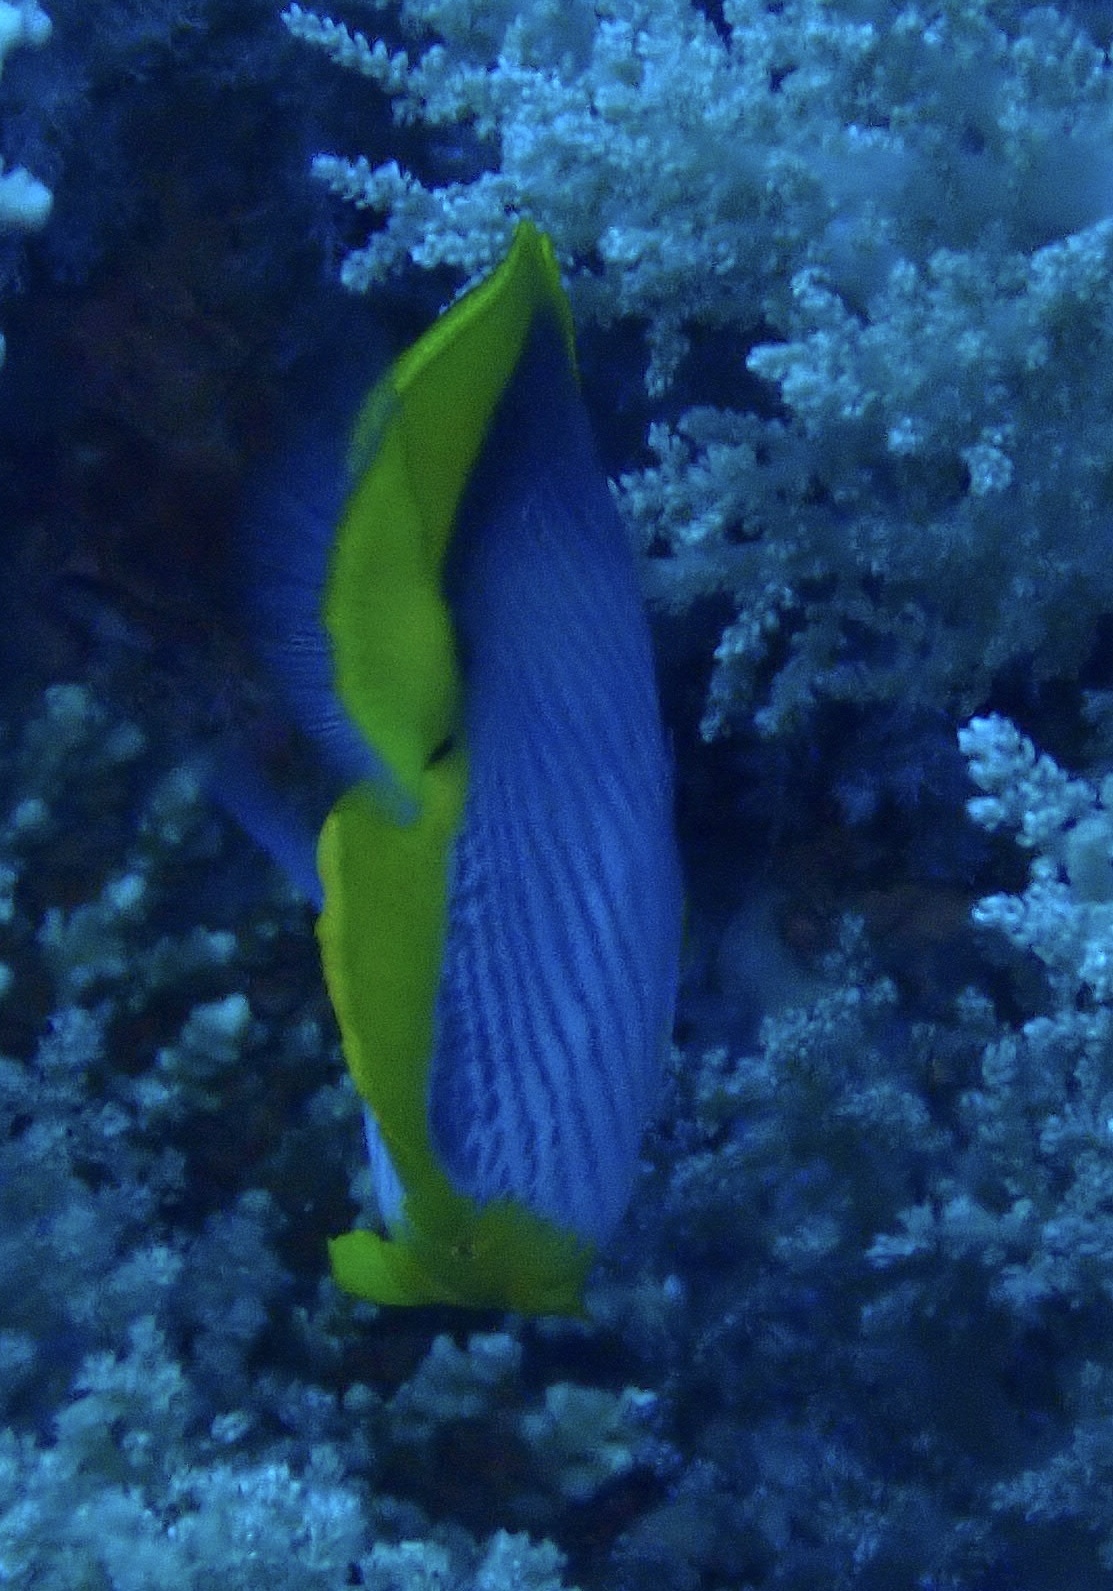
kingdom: Animalia
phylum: Chordata
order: Perciformes
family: Chaetodontidae
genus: Chaetodon
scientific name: Chaetodon melannotus
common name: Blackback butterflyfish
